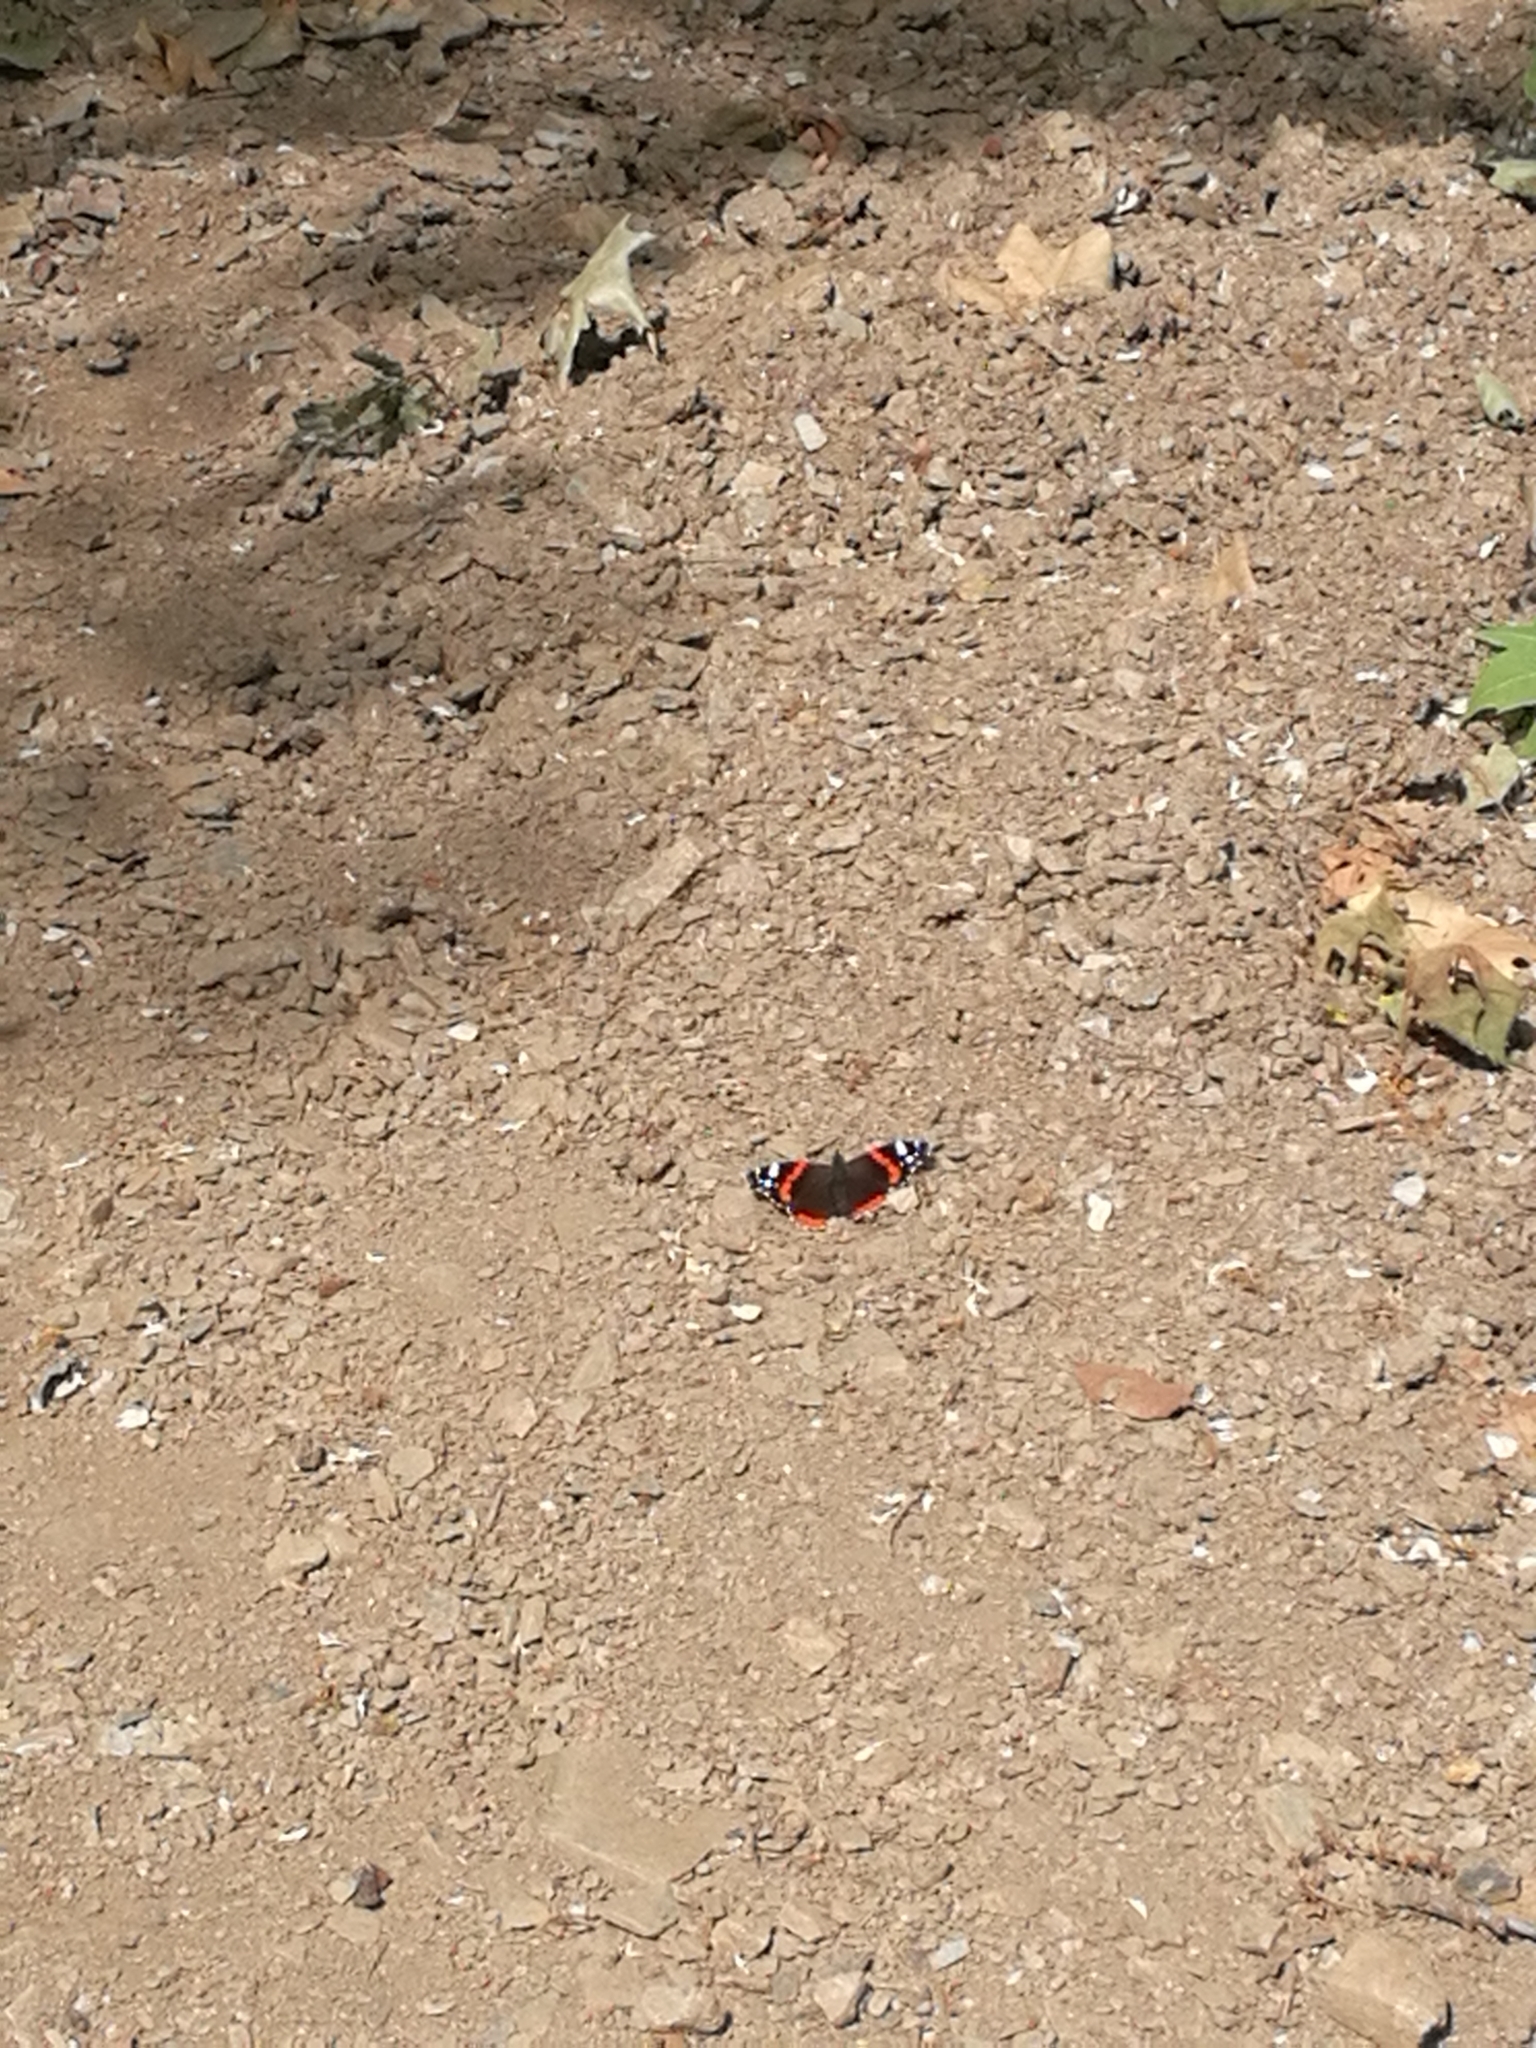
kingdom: Animalia
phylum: Arthropoda
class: Insecta
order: Lepidoptera
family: Nymphalidae
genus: Vanessa
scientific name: Vanessa atalanta
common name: Red admiral
